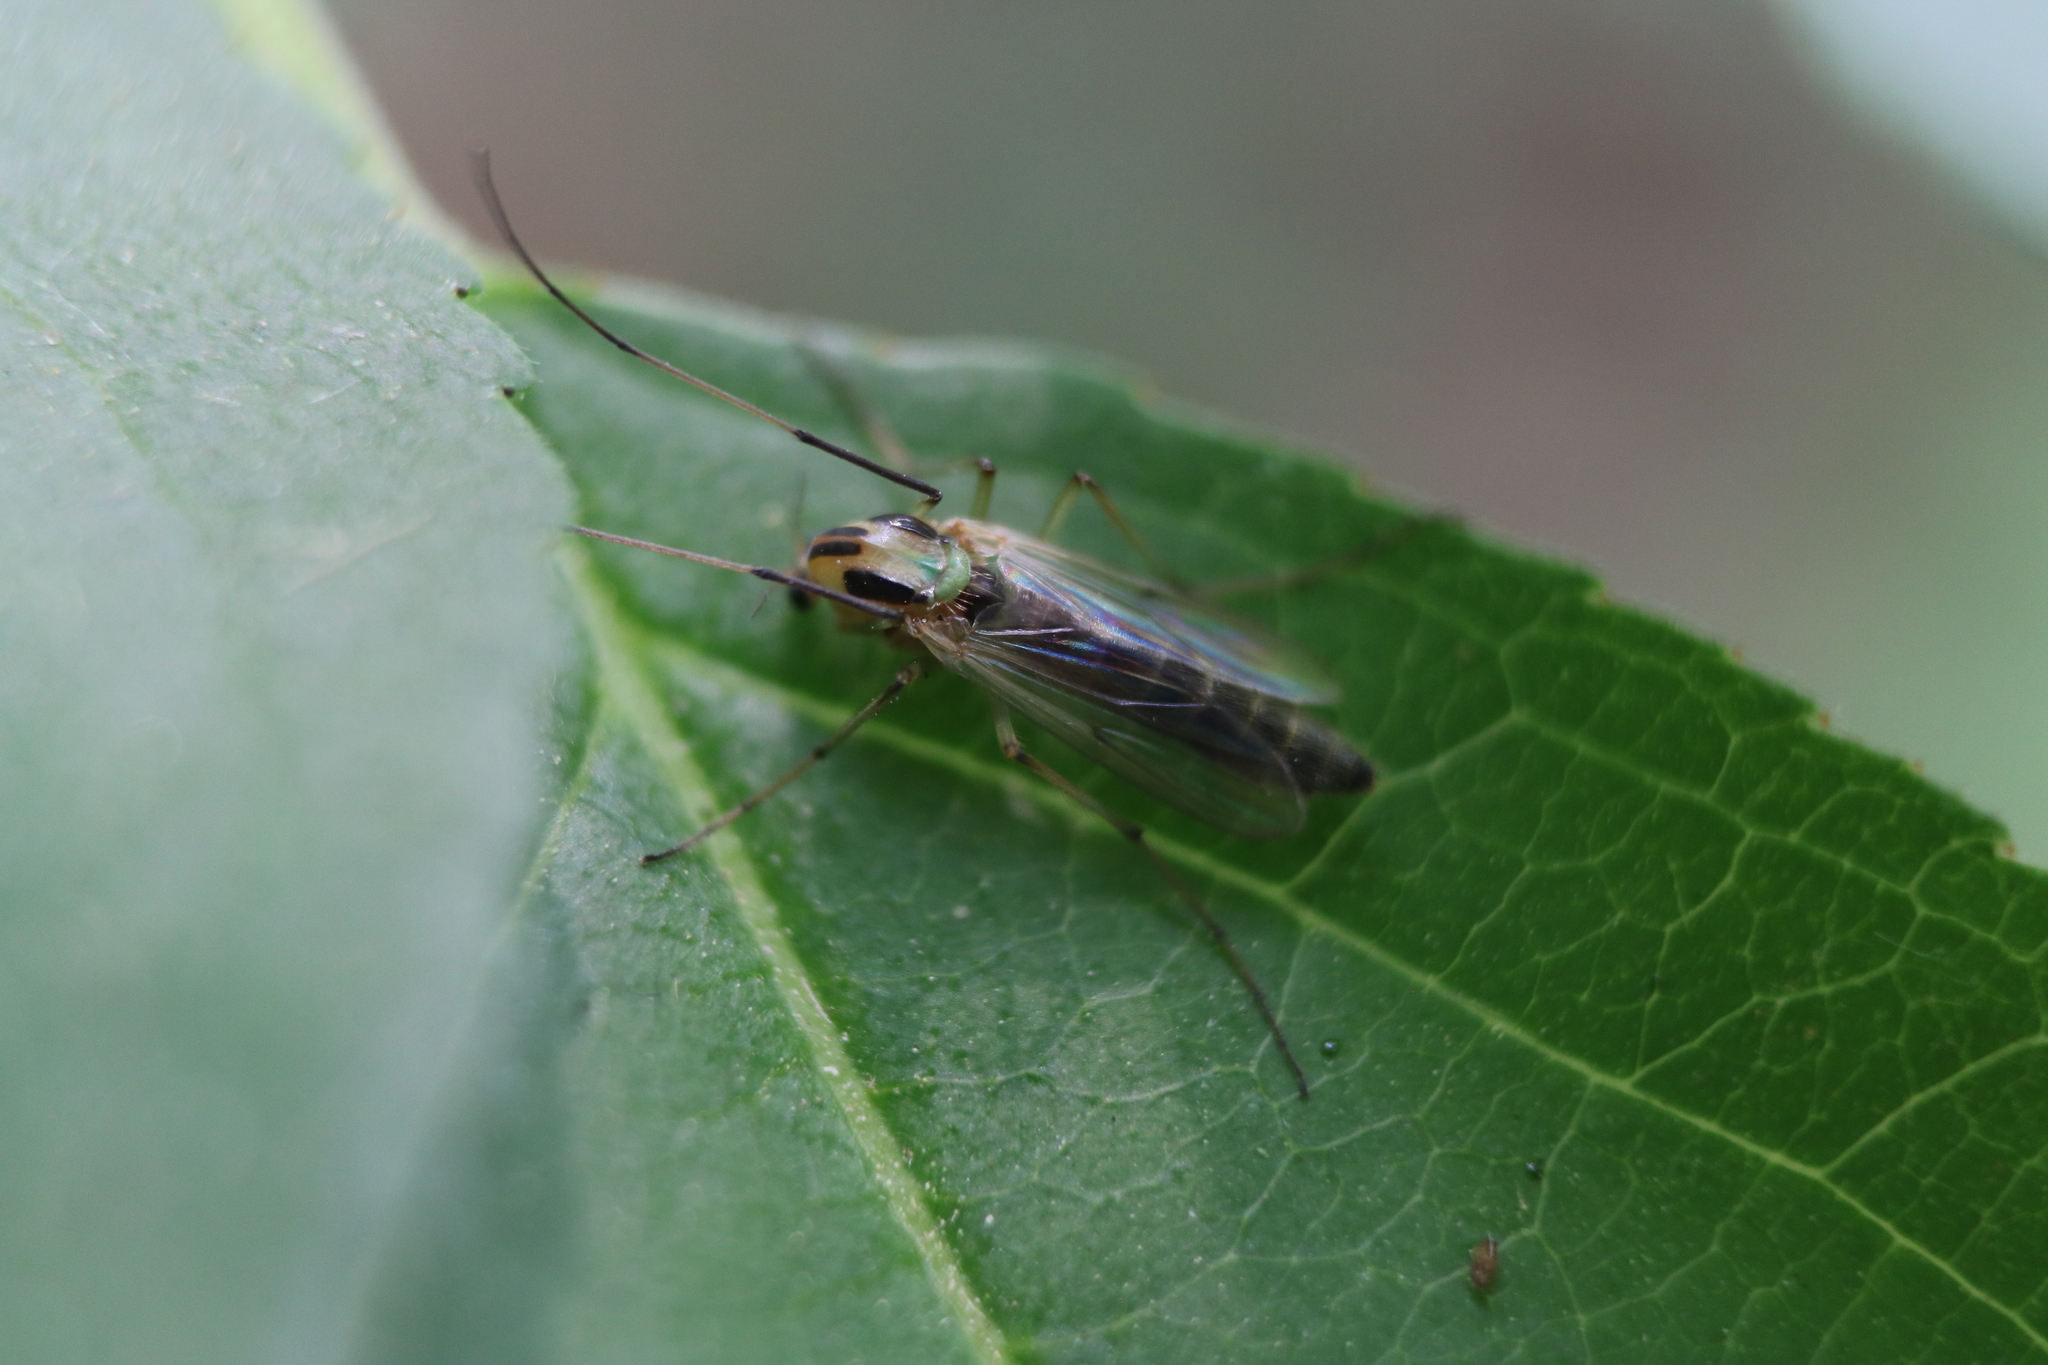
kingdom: Animalia
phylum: Arthropoda
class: Insecta
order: Diptera
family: Chironomidae
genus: Chironomus
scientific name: Chironomus atroviridis
